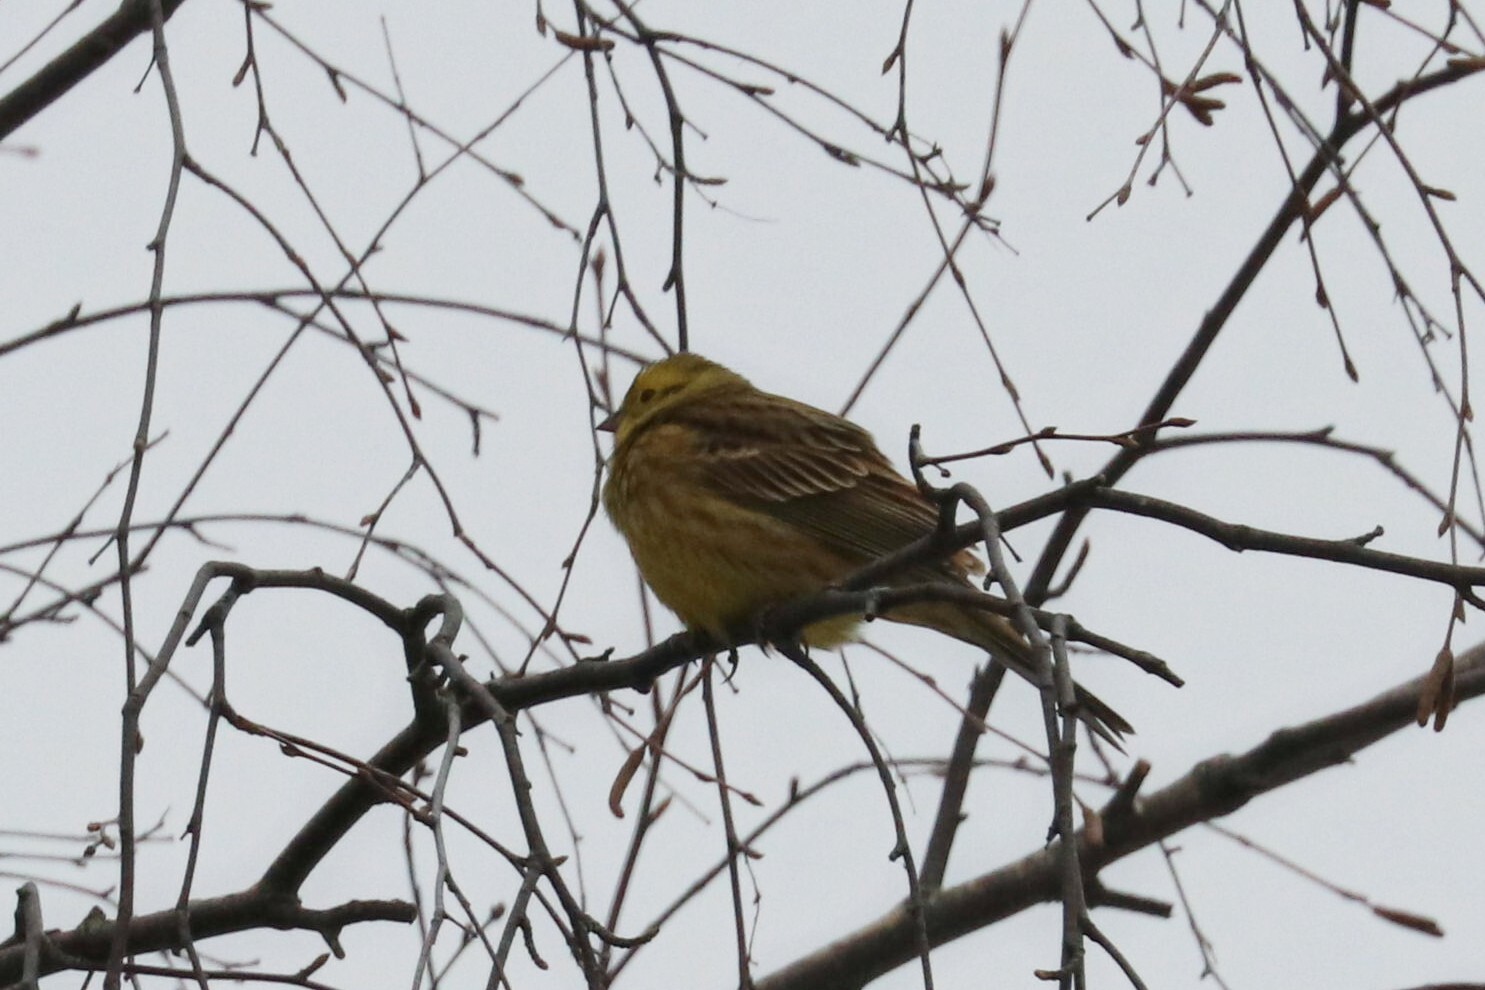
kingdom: Animalia
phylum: Chordata
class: Aves
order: Passeriformes
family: Emberizidae
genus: Emberiza
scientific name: Emberiza citrinella
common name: Yellowhammer
